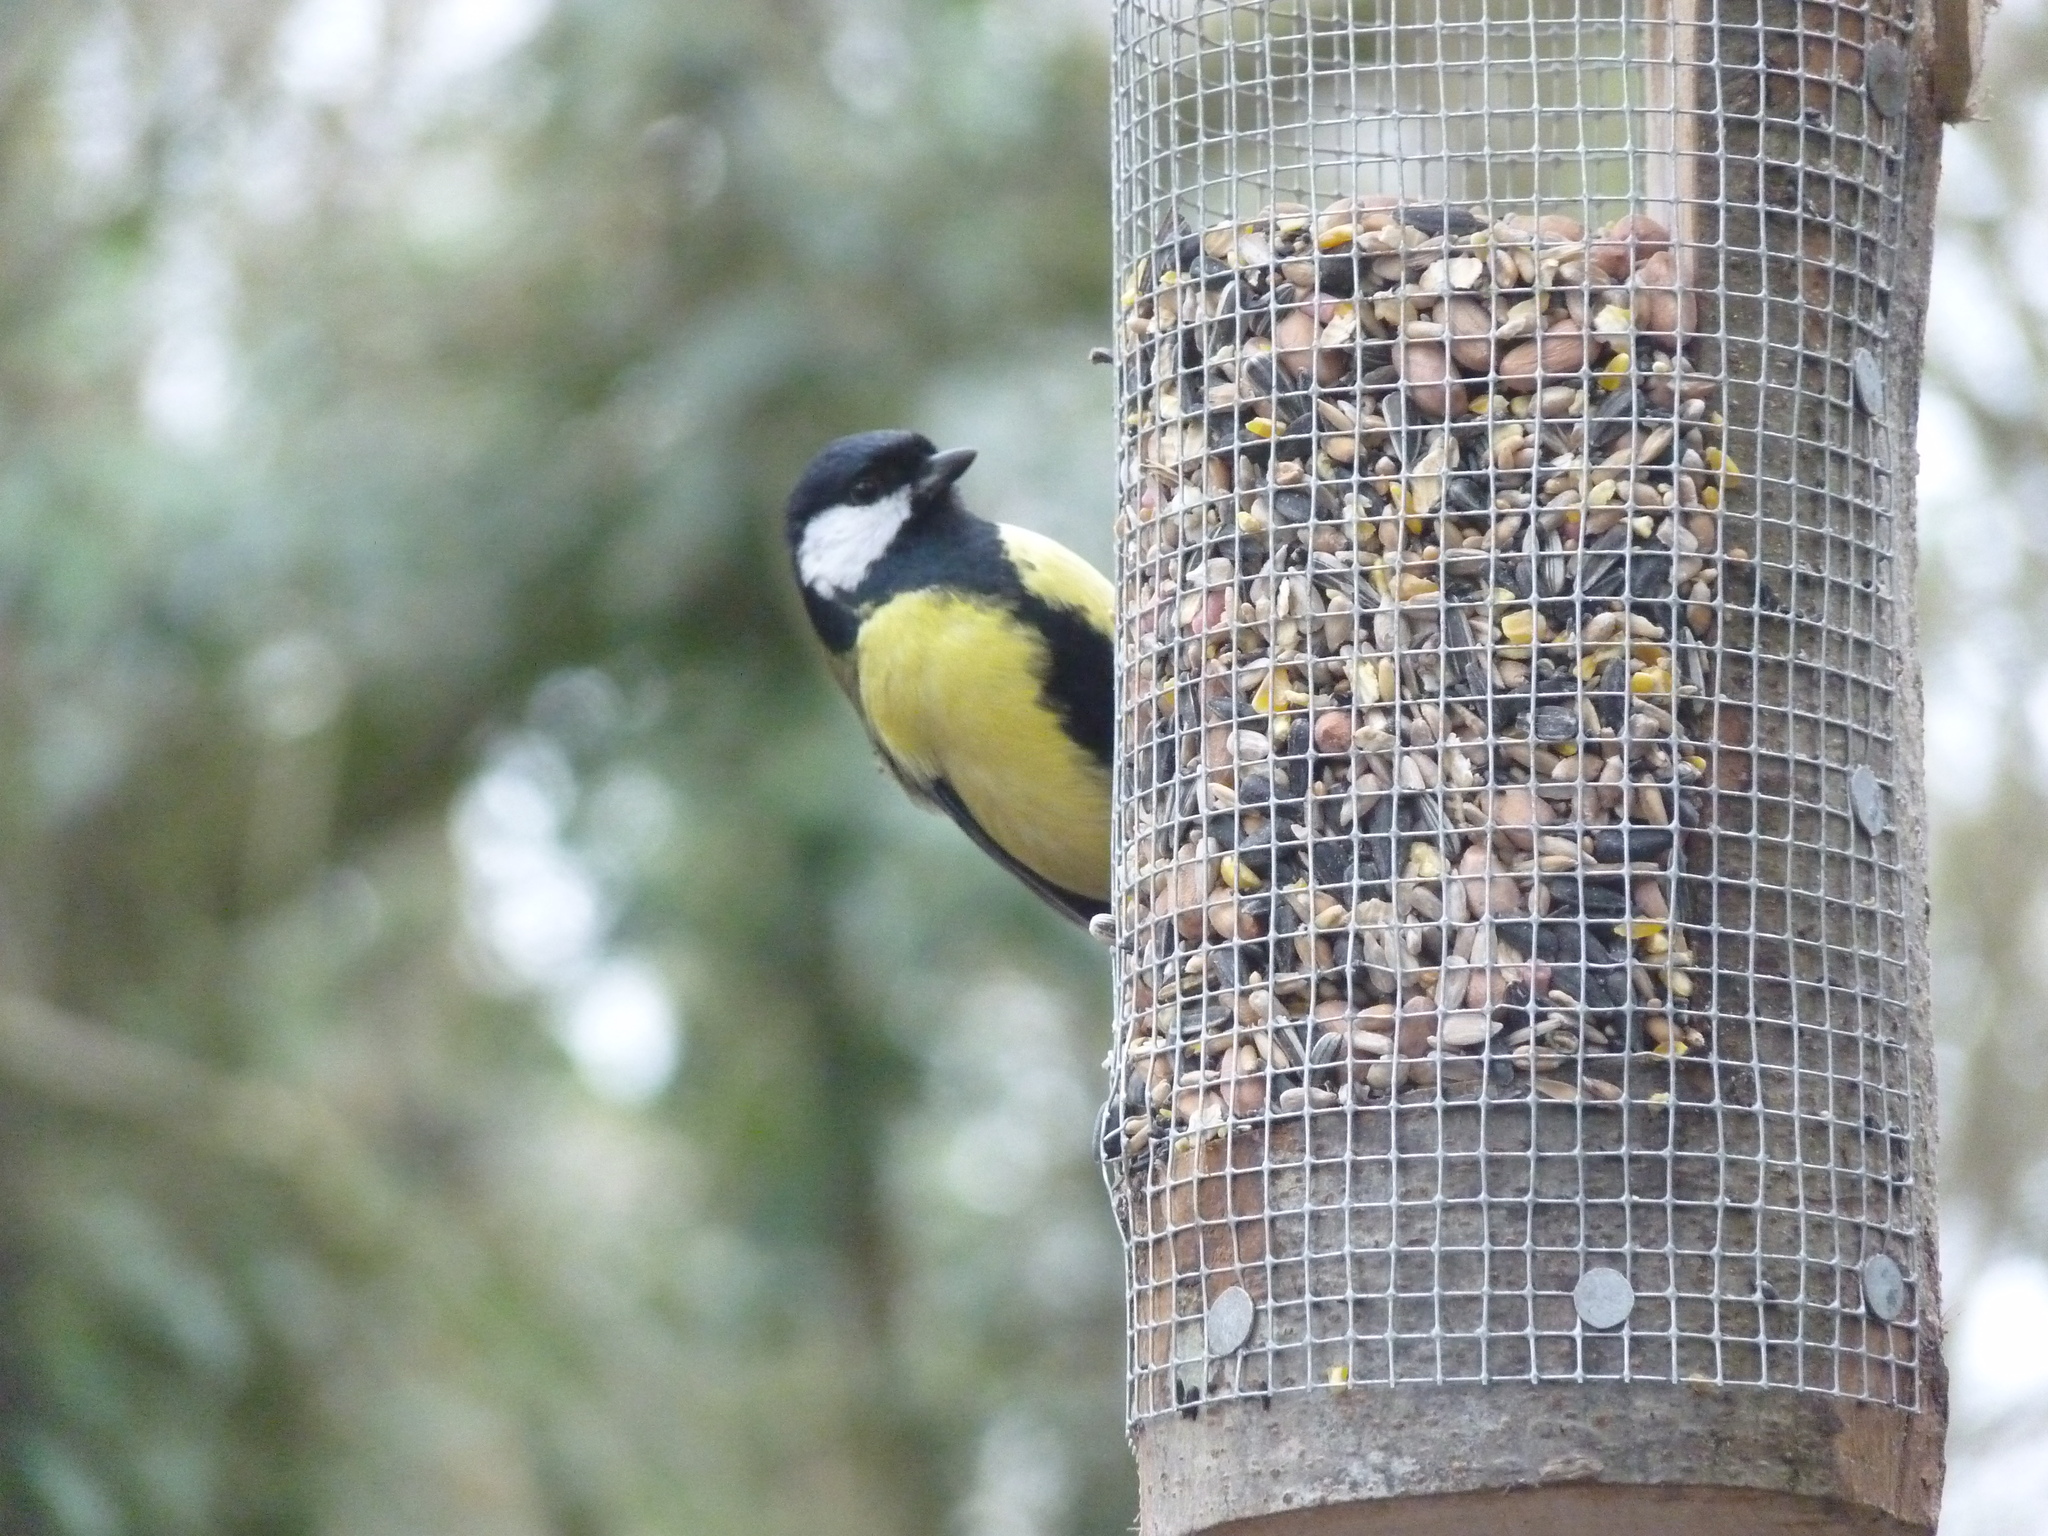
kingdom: Animalia
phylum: Chordata
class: Aves
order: Passeriformes
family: Paridae
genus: Parus
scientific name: Parus major
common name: Great tit
